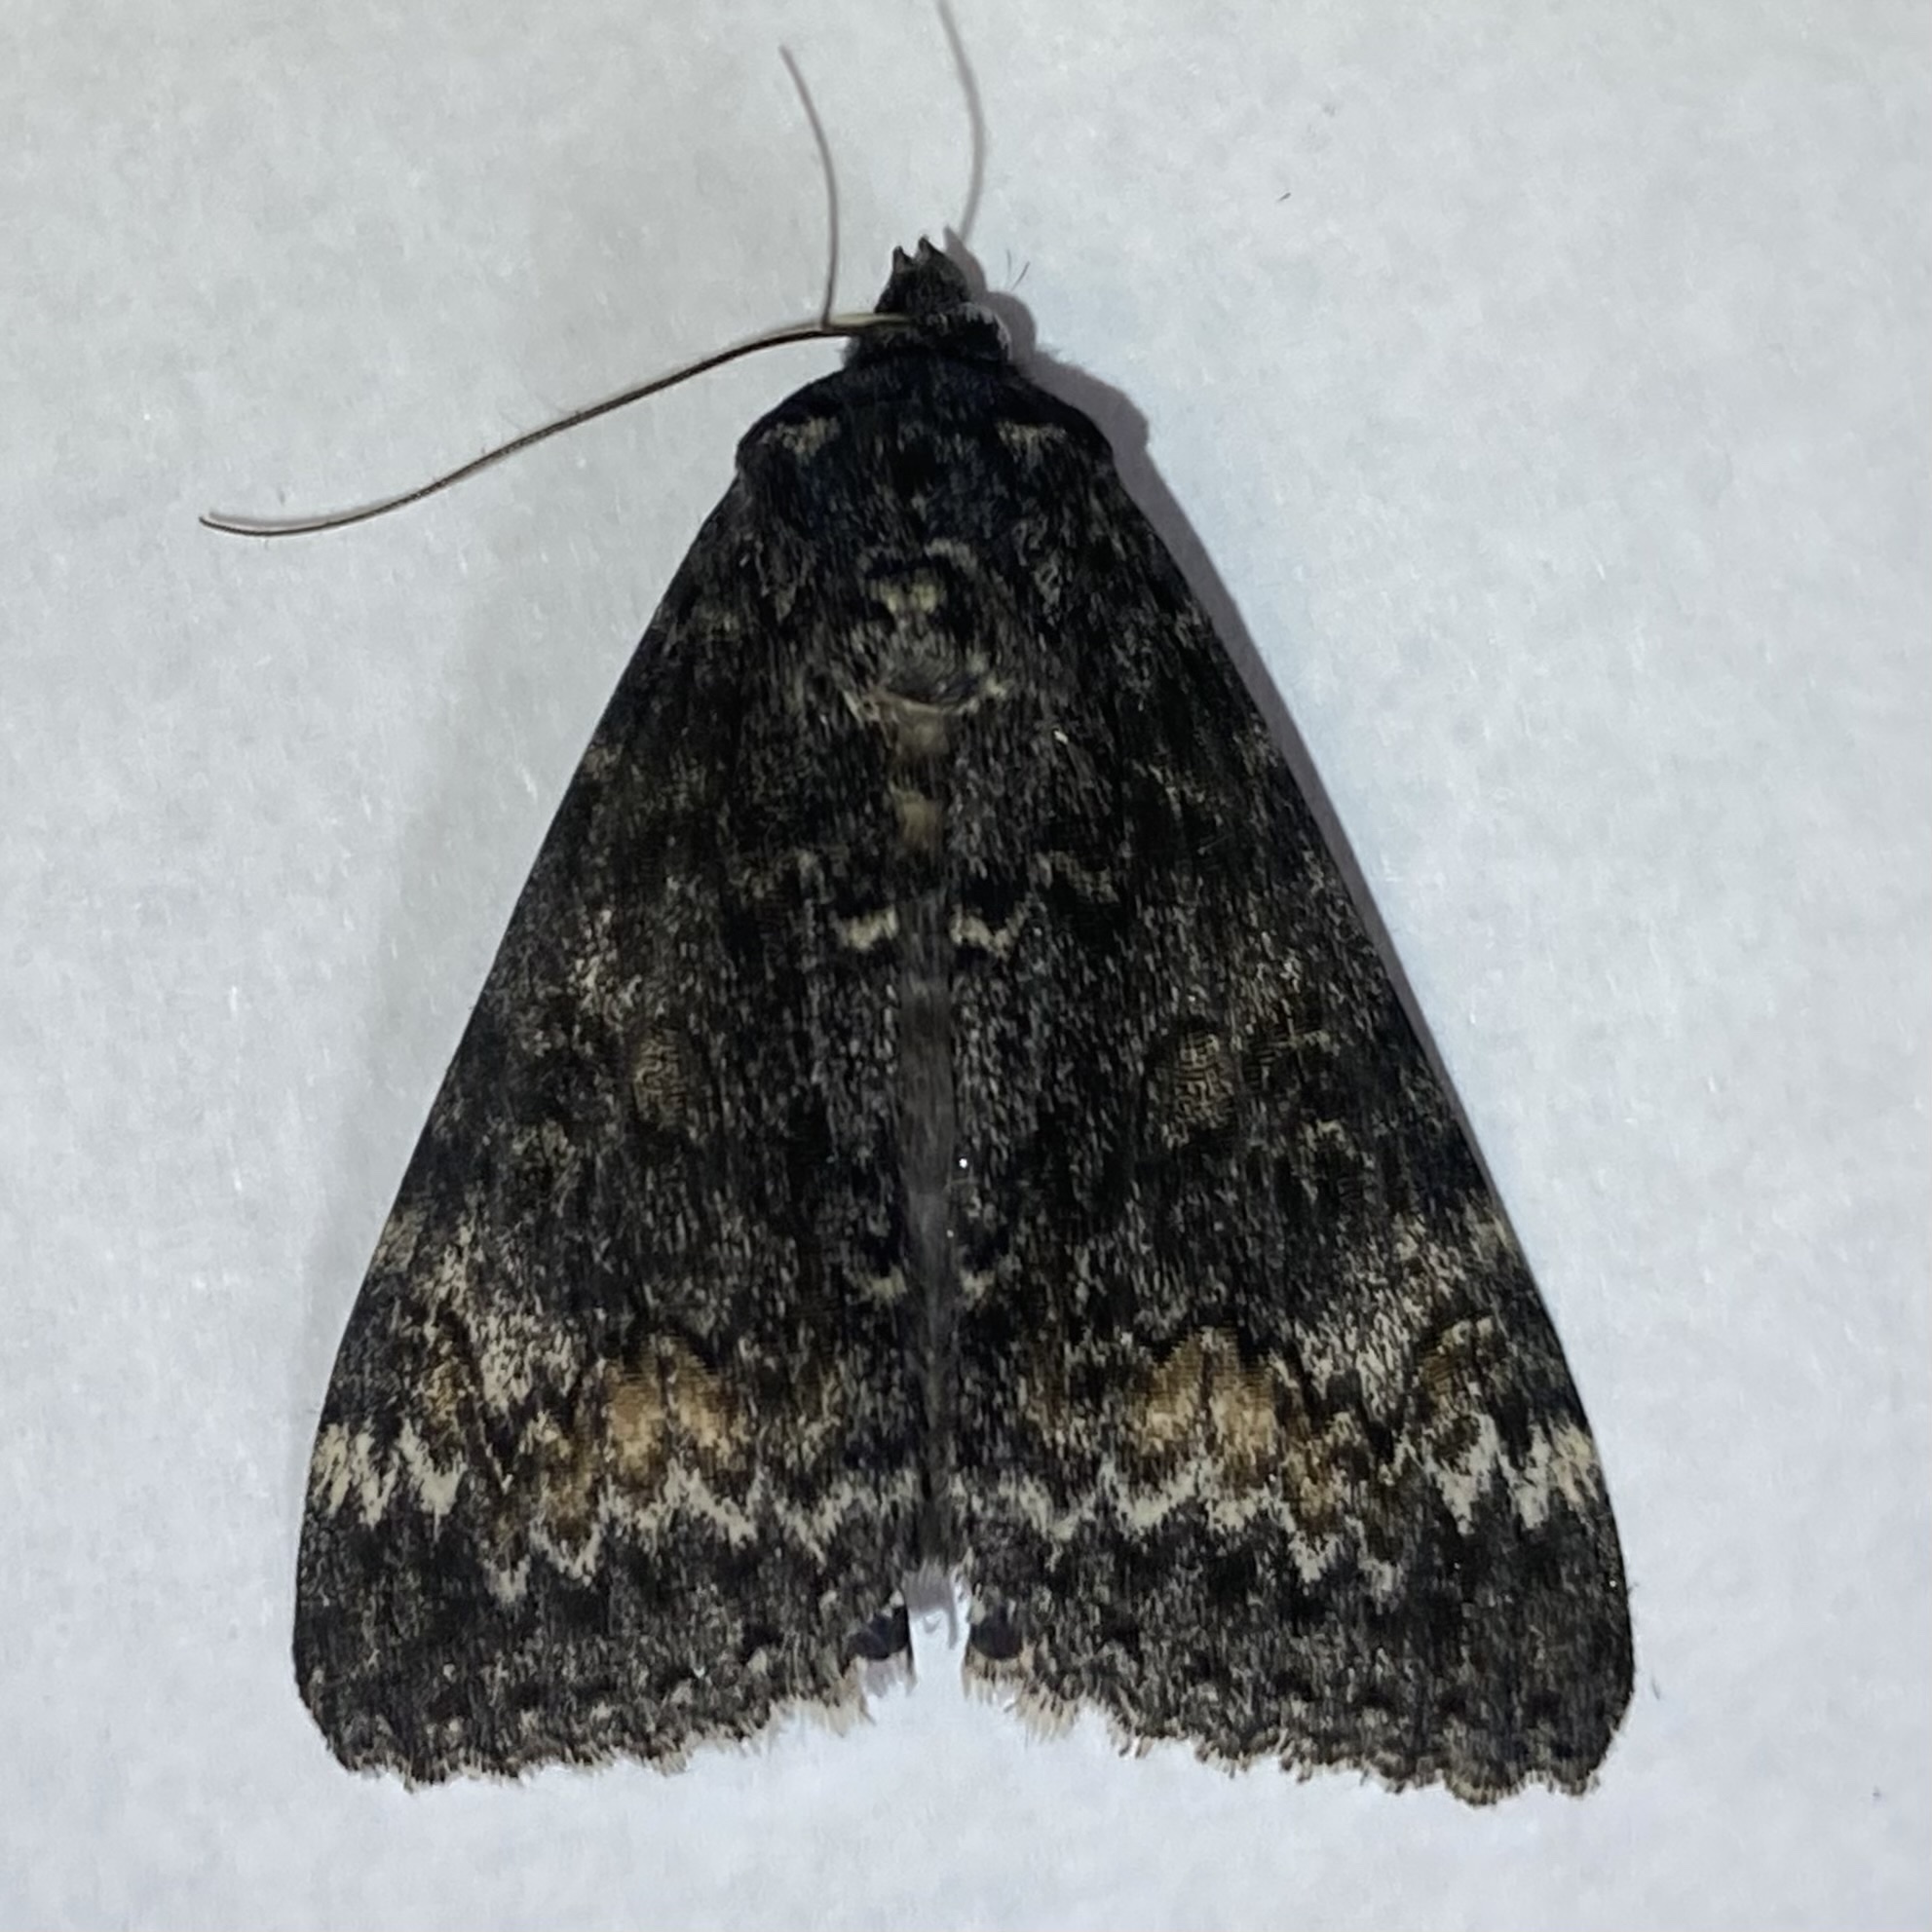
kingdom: Animalia
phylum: Arthropoda
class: Insecta
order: Lepidoptera
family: Erebidae
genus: Catocala
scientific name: Catocala briseis
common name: Briseis underwing
